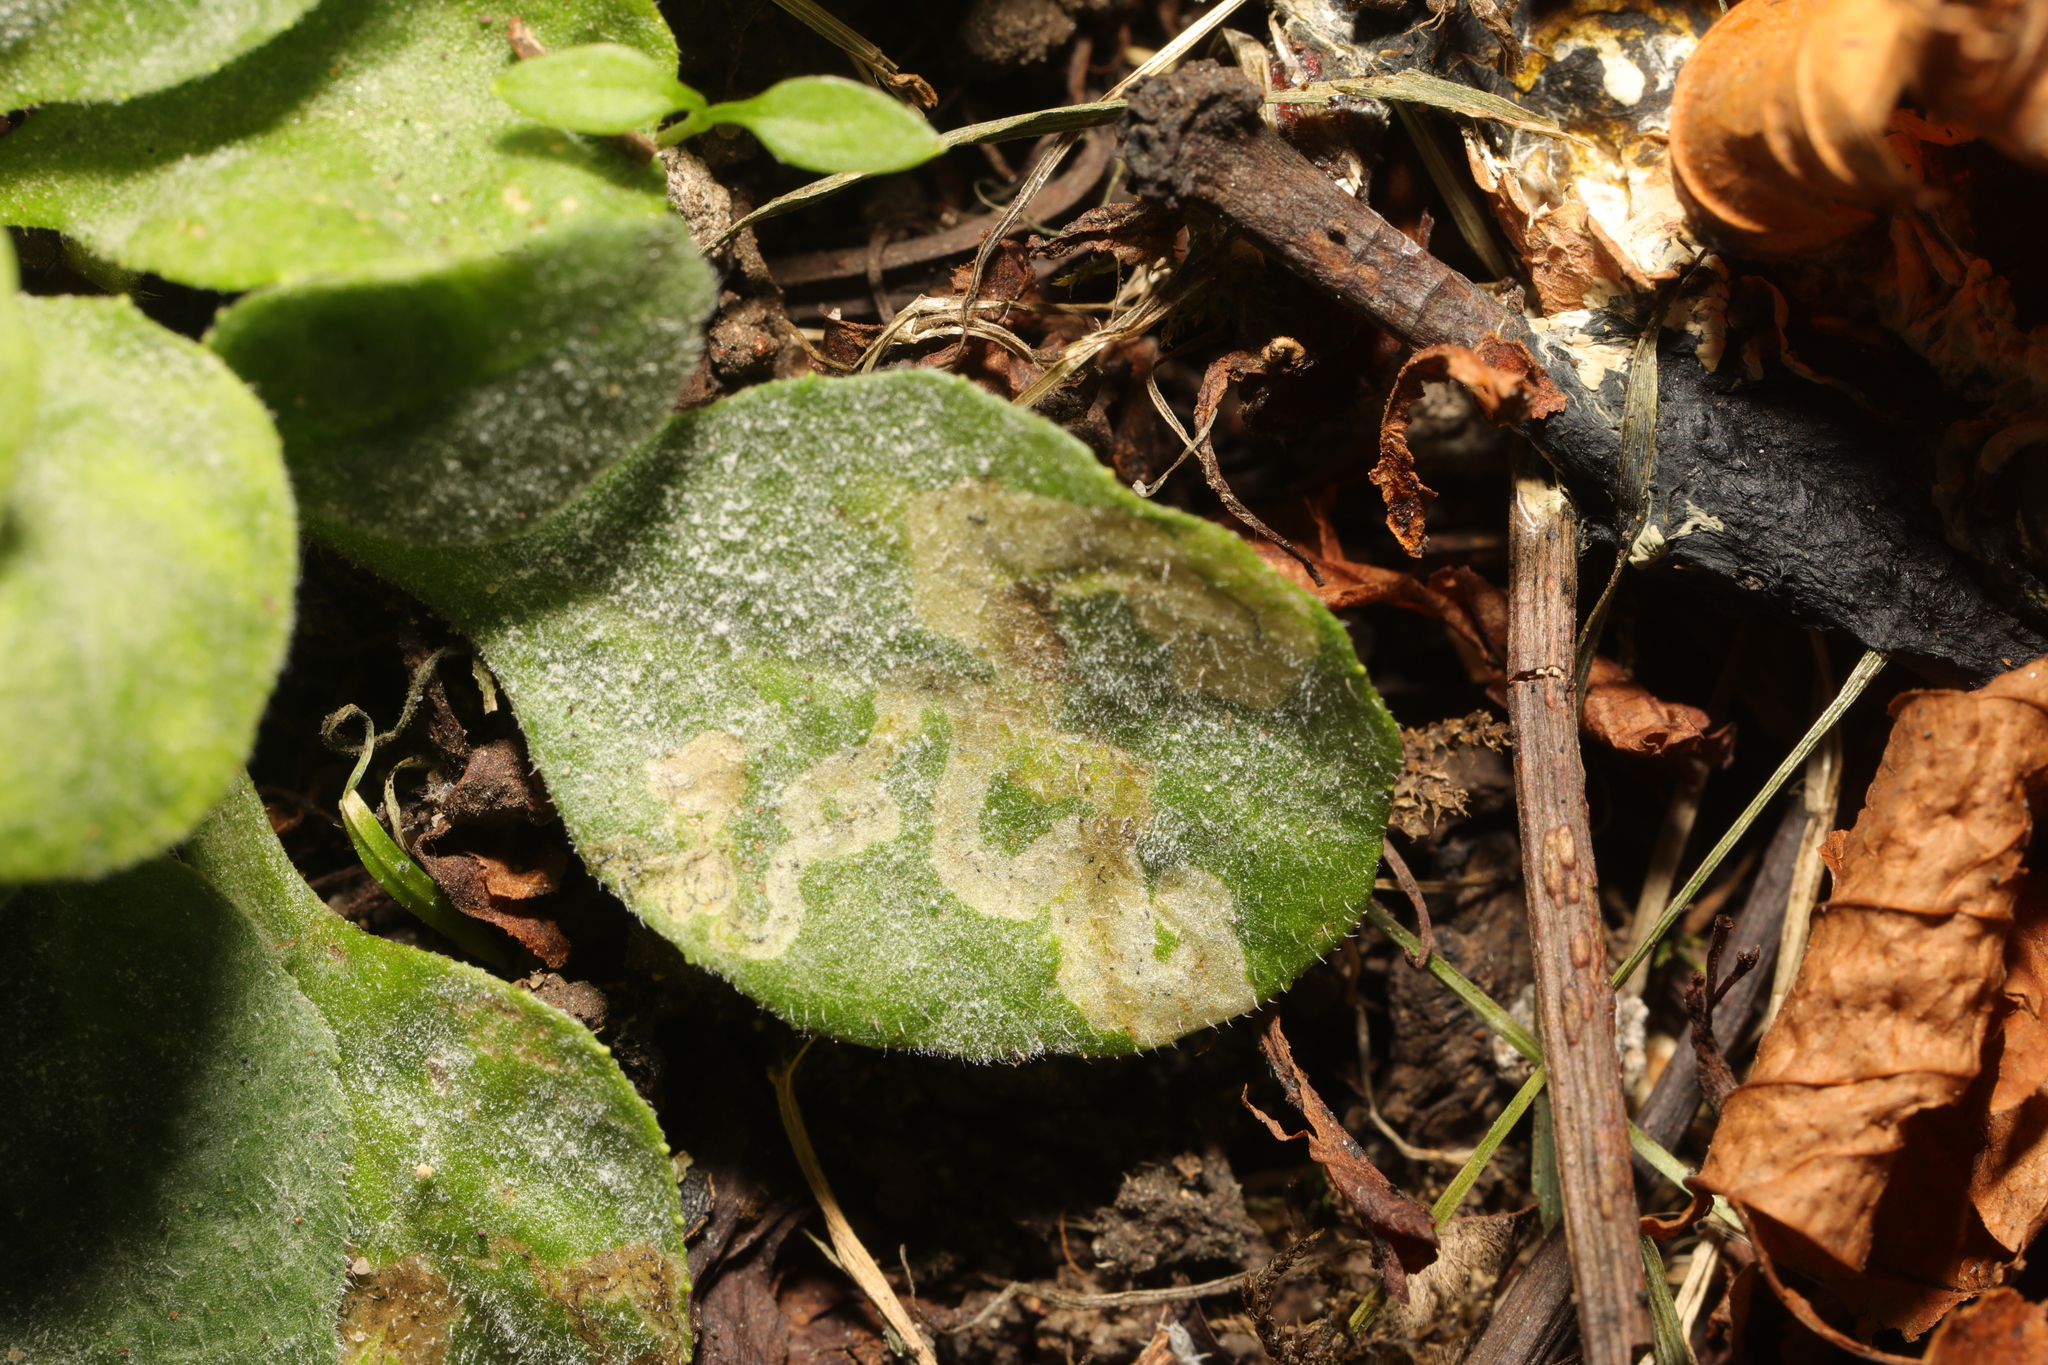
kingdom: Animalia
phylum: Arthropoda
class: Insecta
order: Diptera
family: Agromyzidae
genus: Phytomyza
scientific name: Phytomyza horticola
